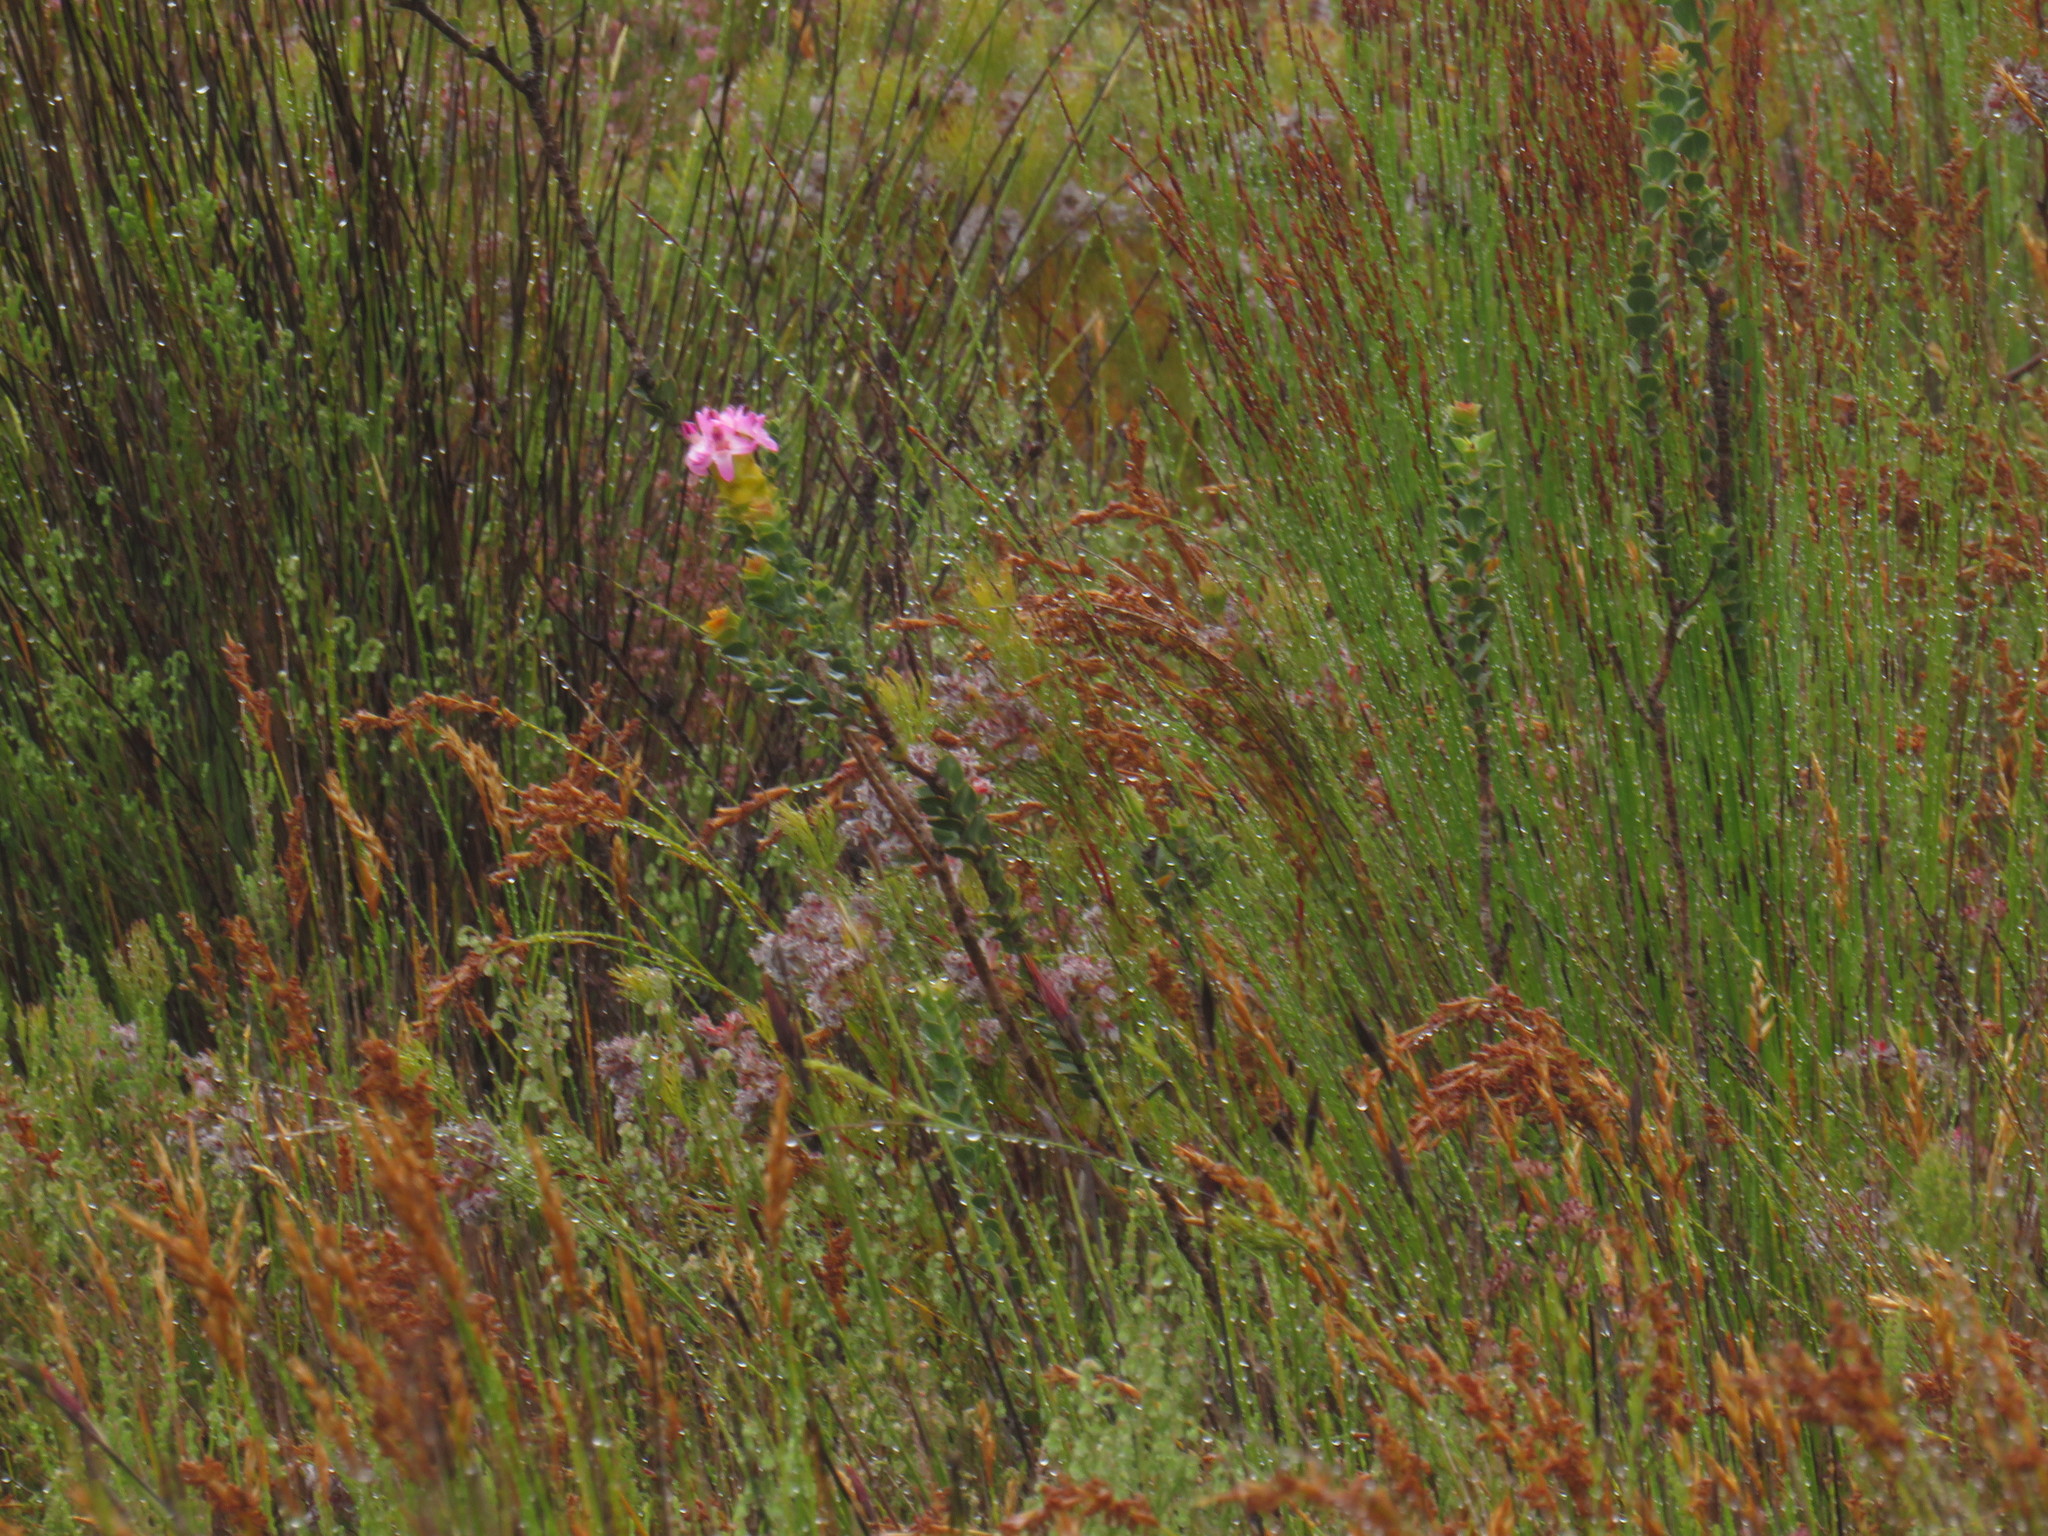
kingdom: Plantae
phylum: Tracheophyta
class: Magnoliopsida
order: Myrtales
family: Penaeaceae
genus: Saltera
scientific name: Saltera sarcocolla
